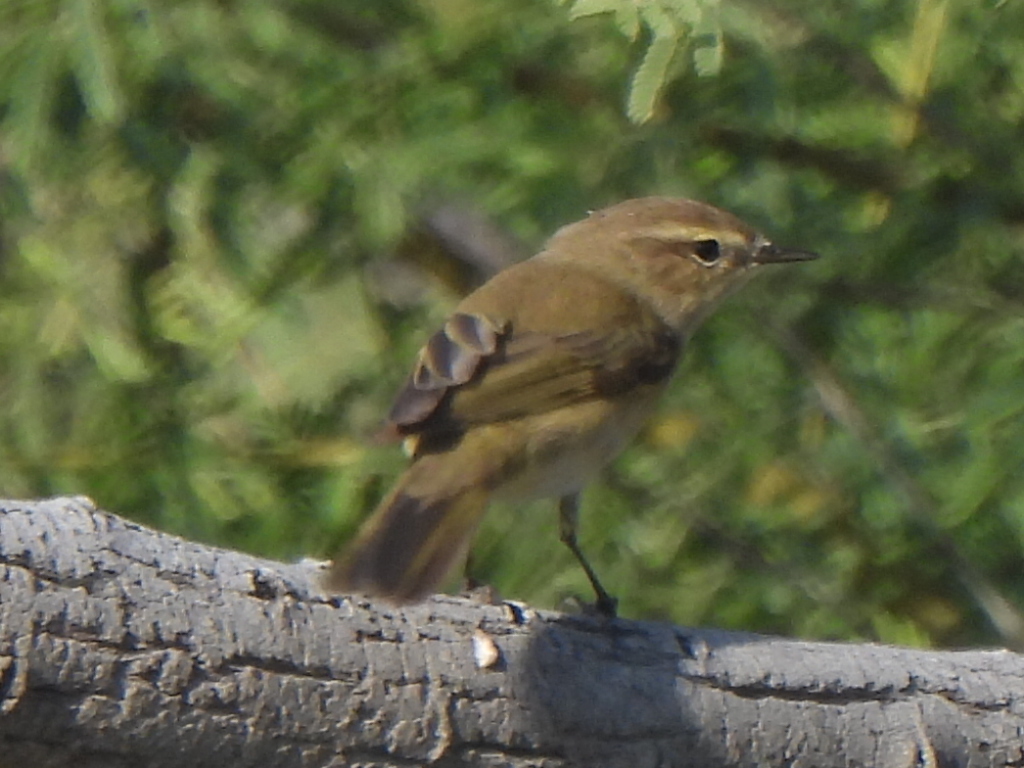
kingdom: Animalia
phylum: Chordata
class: Aves
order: Passeriformes
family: Phylloscopidae
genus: Phylloscopus
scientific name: Phylloscopus collybita
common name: Common chiffchaff
